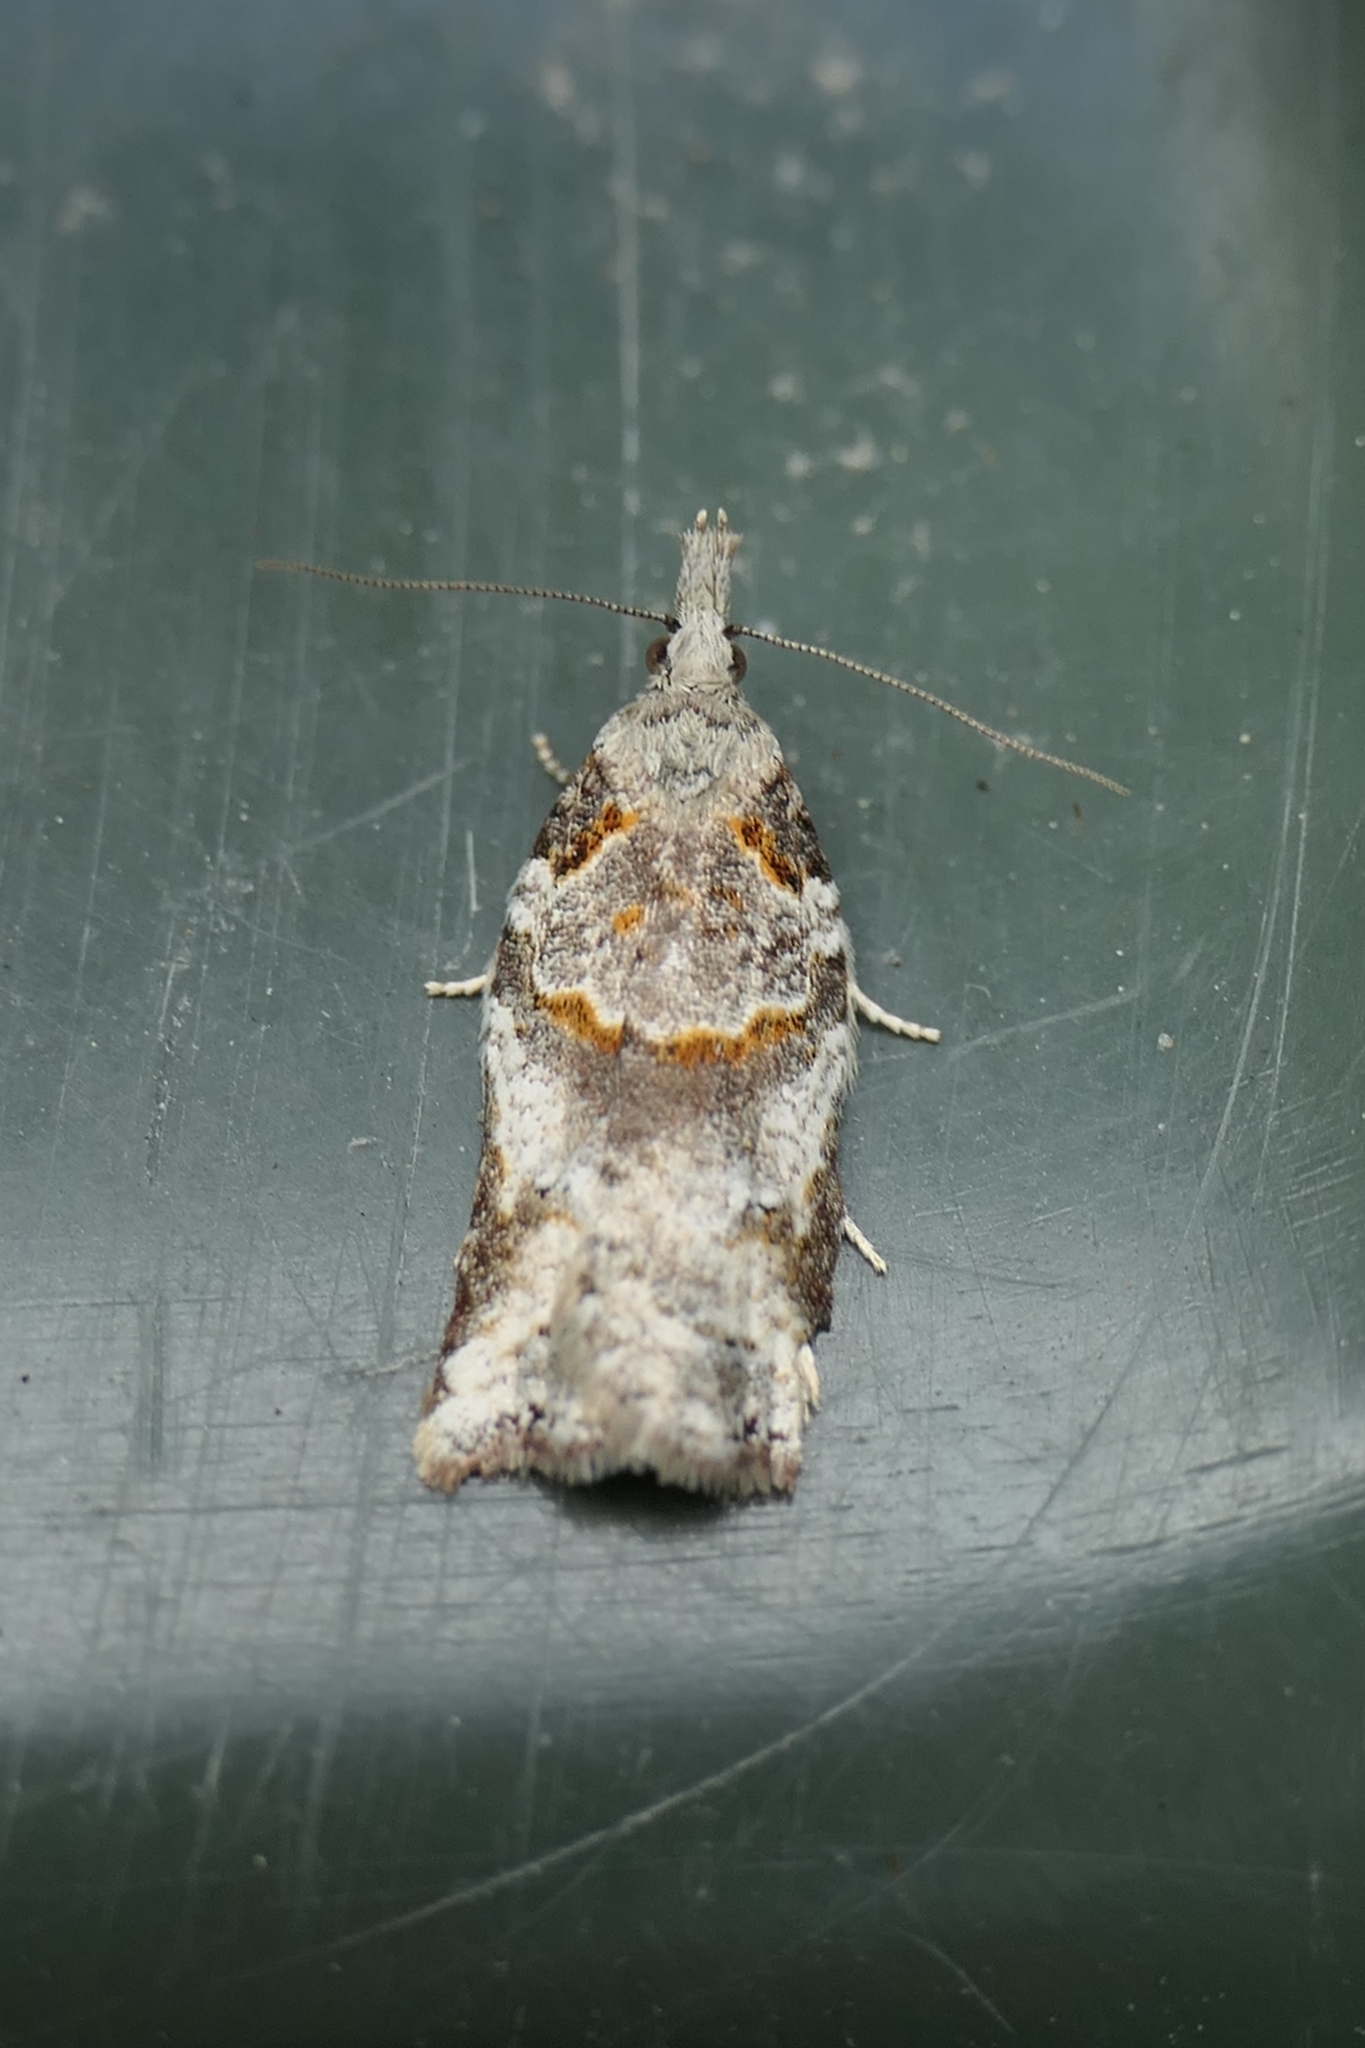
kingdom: Animalia
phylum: Arthropoda
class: Insecta
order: Lepidoptera
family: Tortricidae
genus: Harmologa
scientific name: Harmologa amplexana
